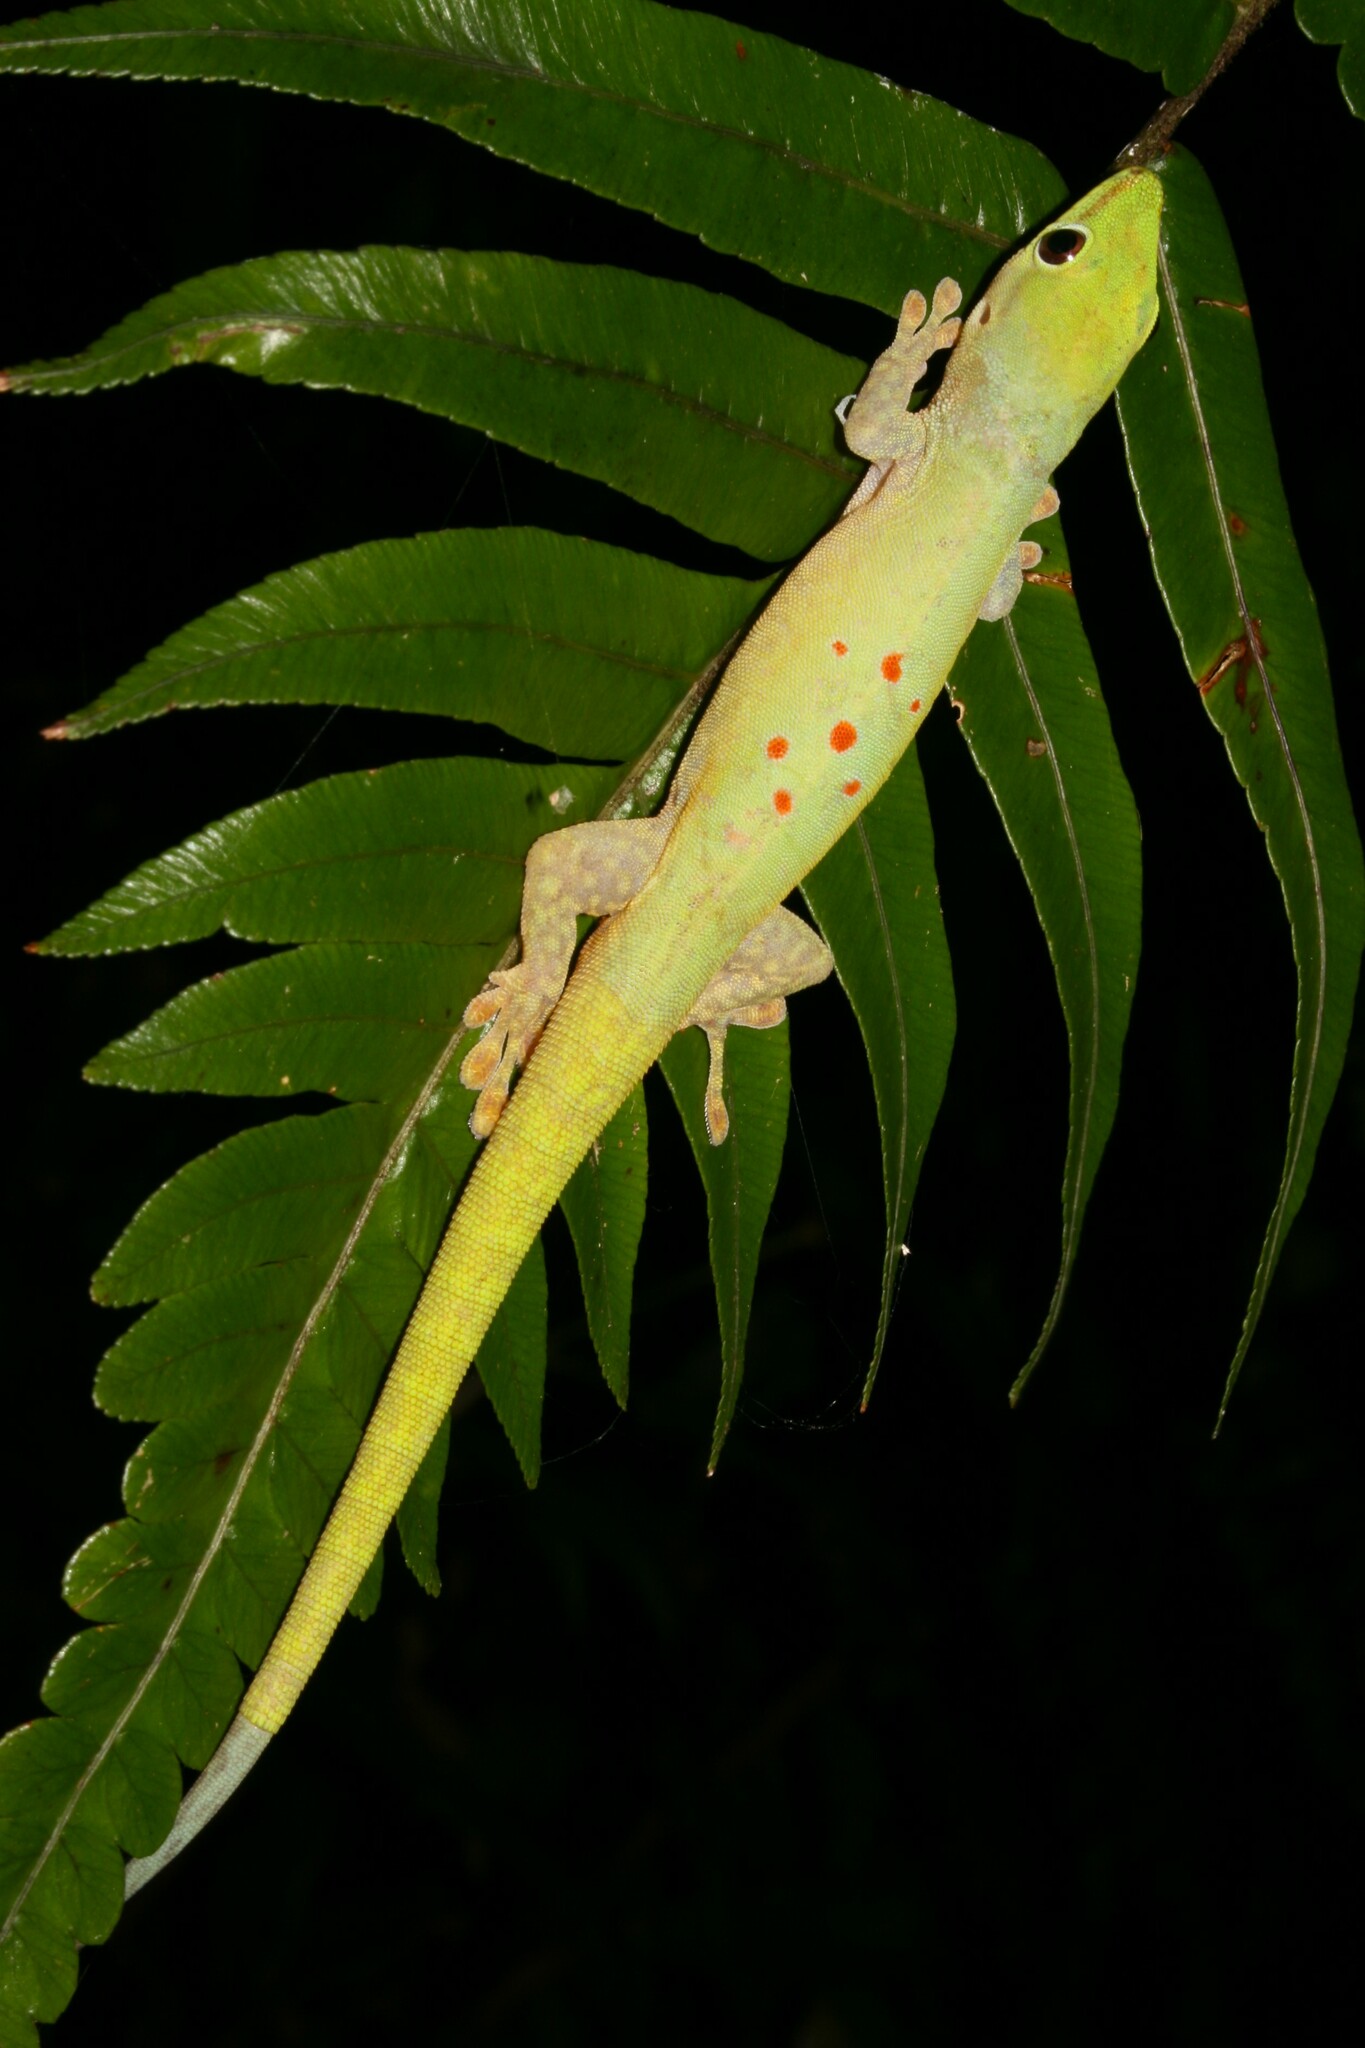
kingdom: Animalia
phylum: Chordata
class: Squamata
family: Gekkonidae
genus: Phelsuma
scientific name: Phelsuma guttata
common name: Speckled day  gecko
